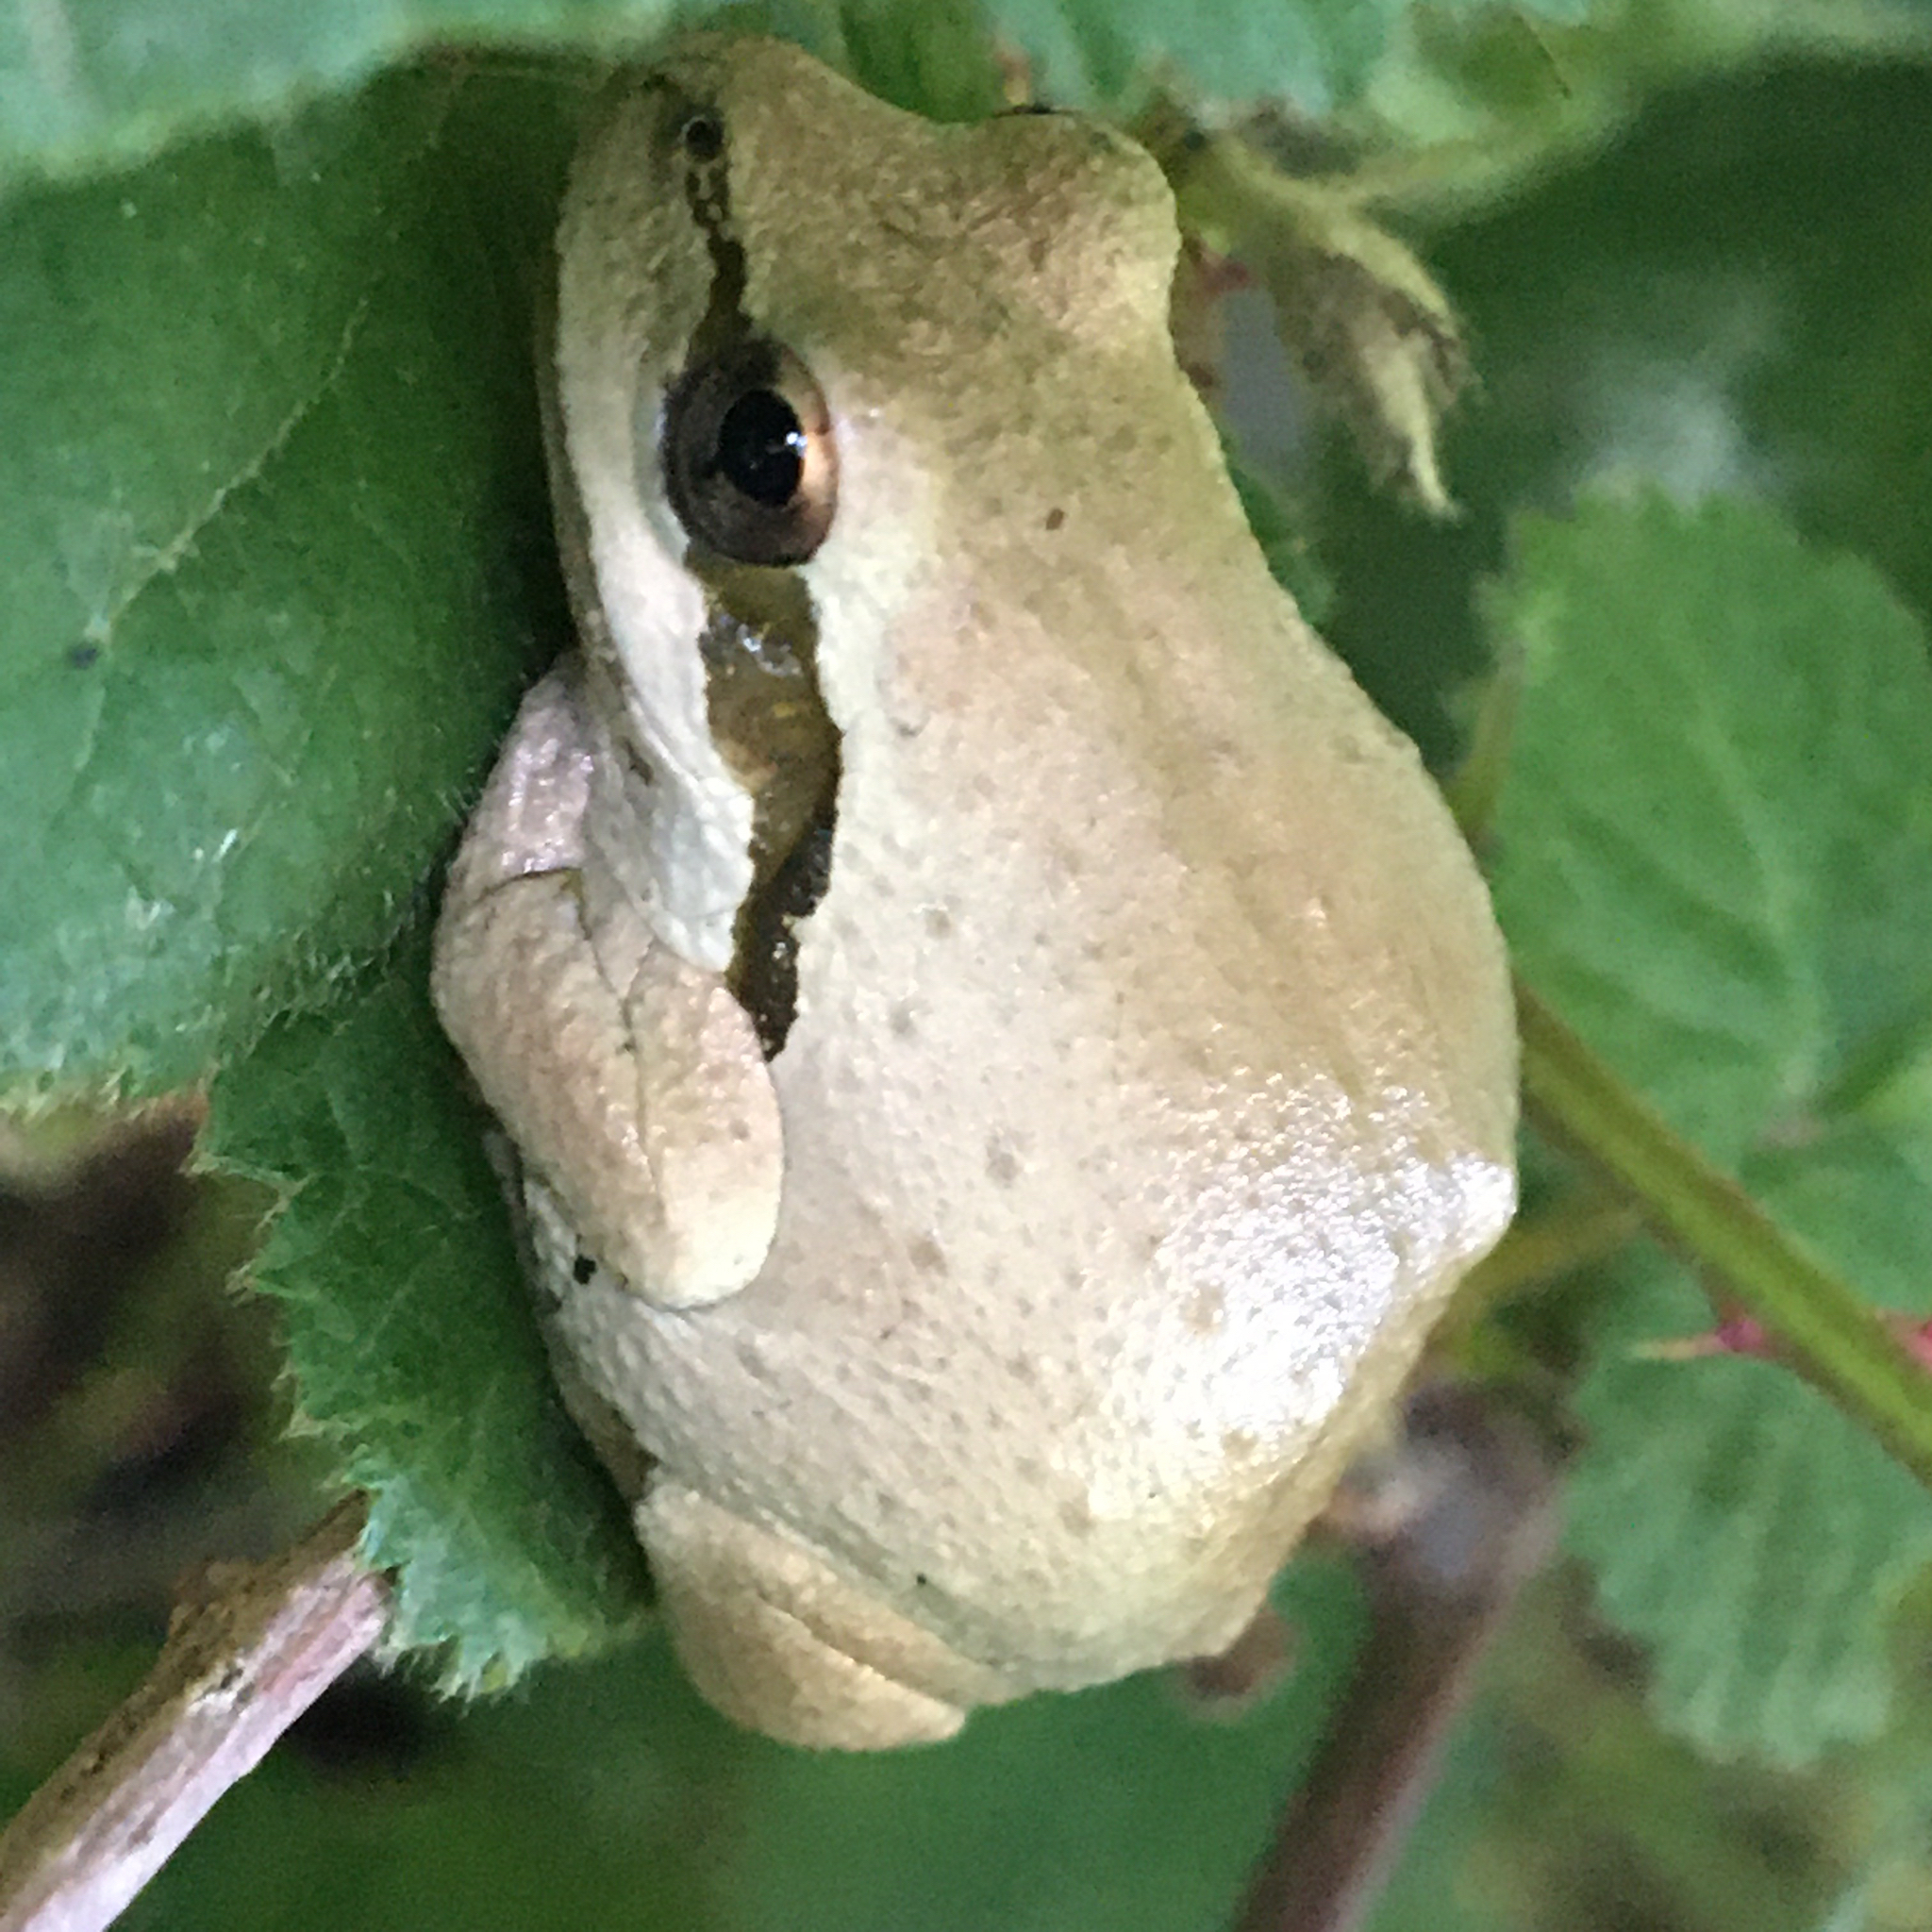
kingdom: Animalia
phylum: Chordata
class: Amphibia
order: Anura
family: Hylidae
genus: Pseudacris
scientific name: Pseudacris regilla
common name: Pacific chorus frog
